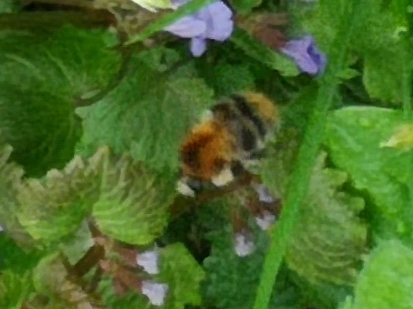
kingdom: Animalia
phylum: Arthropoda
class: Insecta
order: Hymenoptera
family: Apidae
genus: Bombus
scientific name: Bombus pascuorum
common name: Common carder bee
